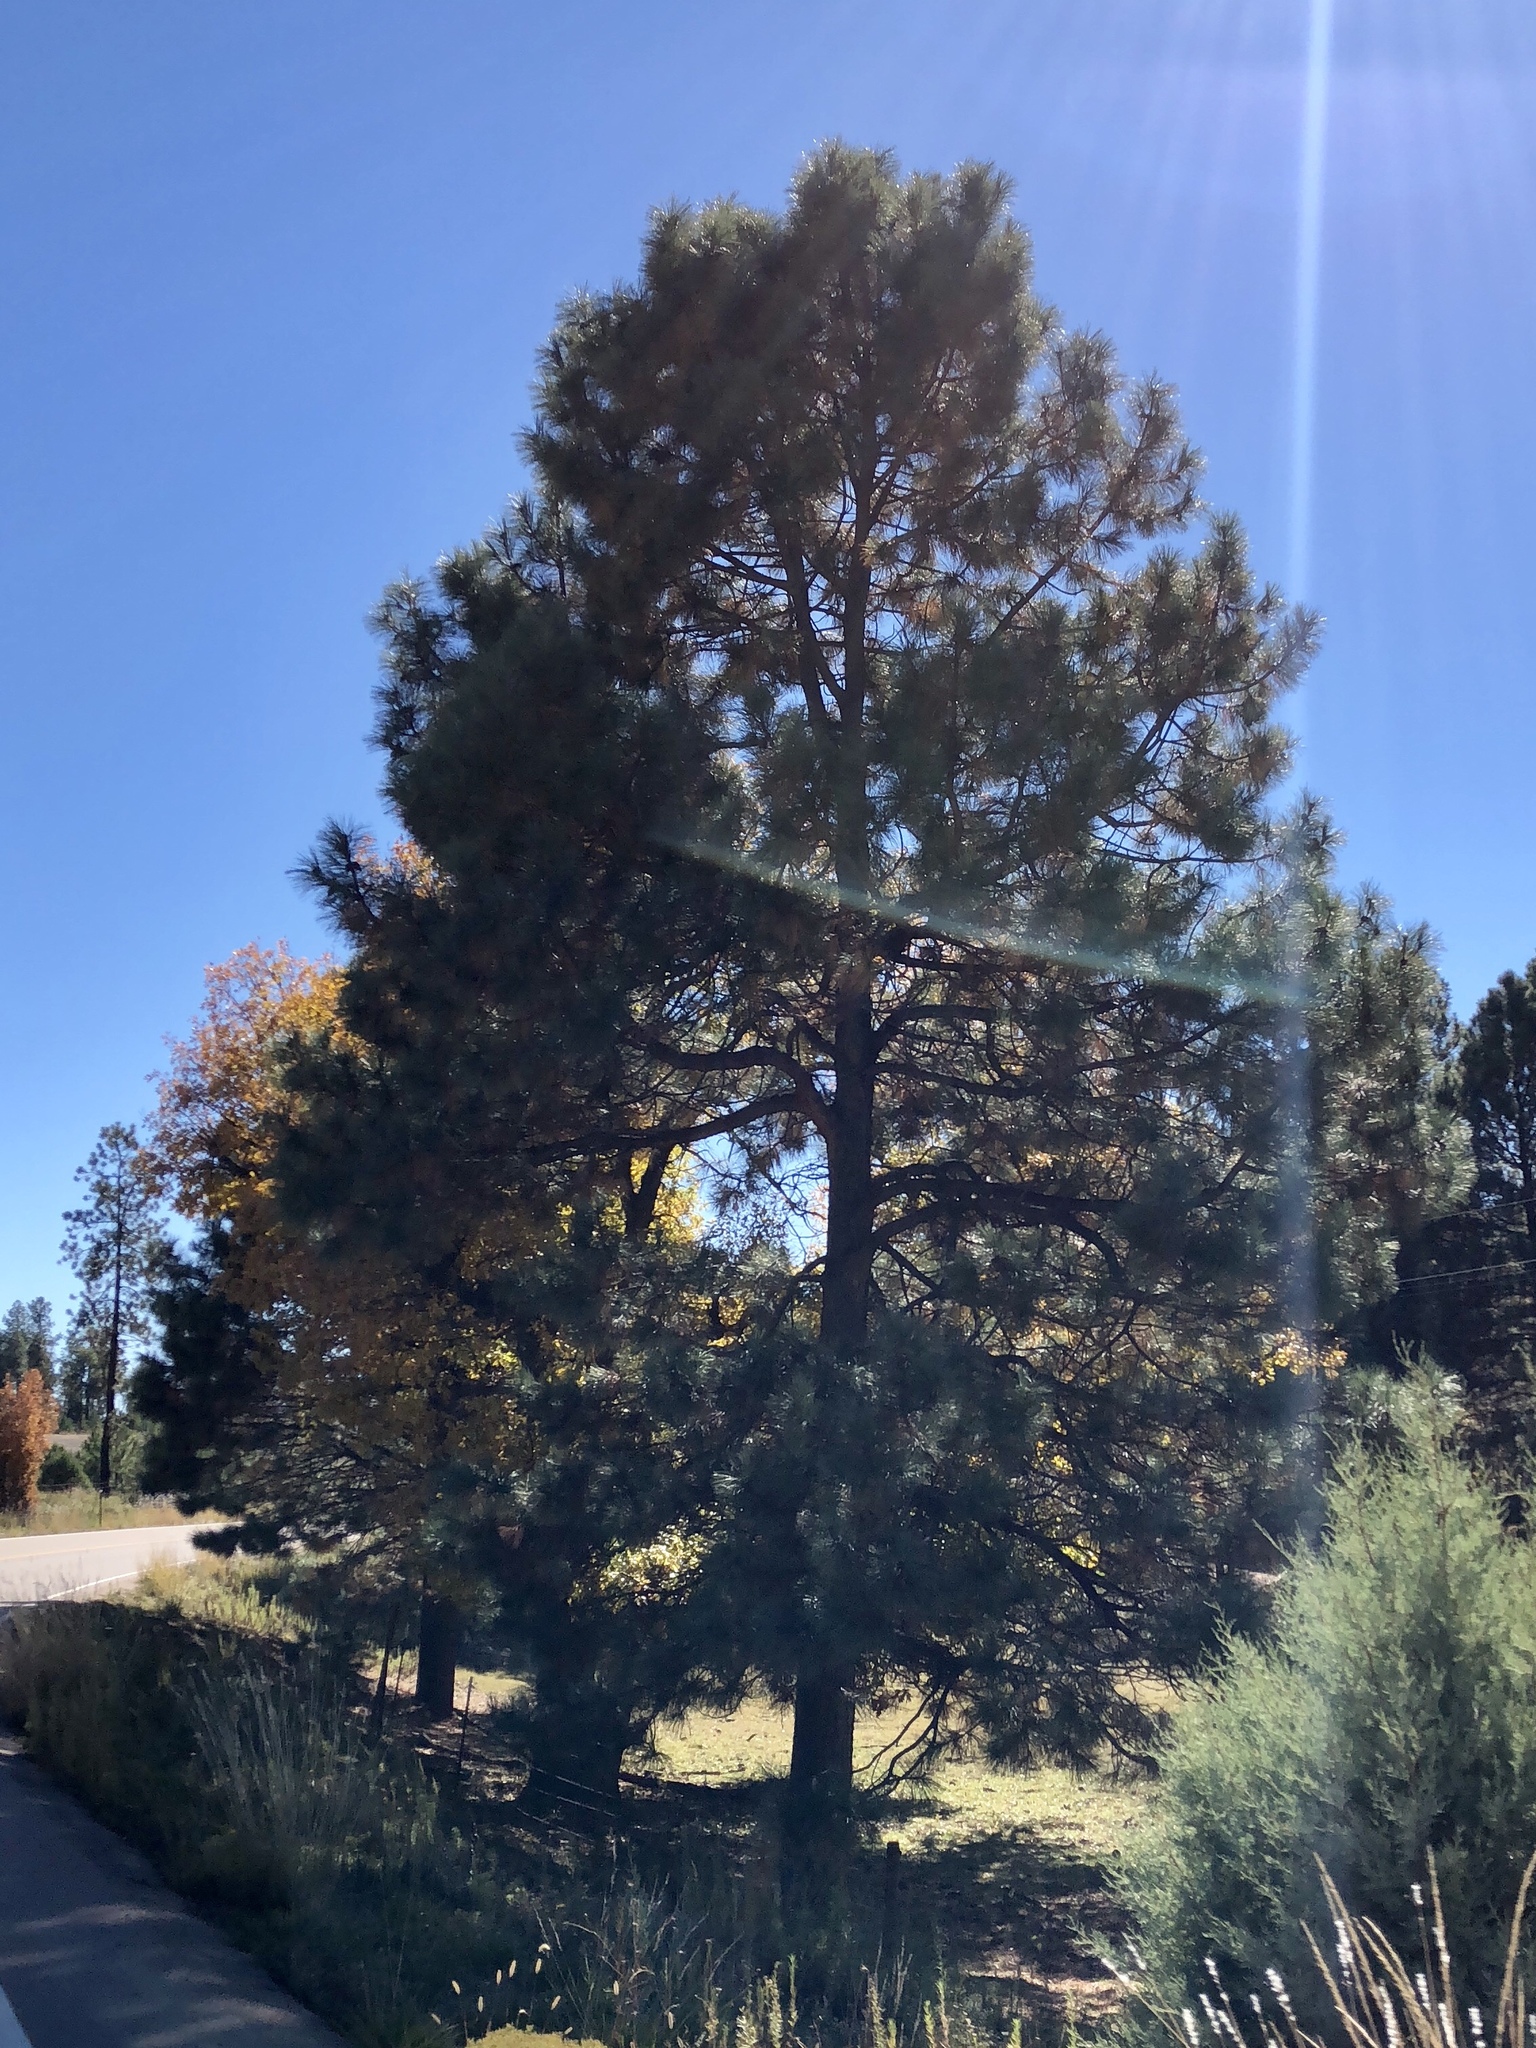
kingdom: Plantae
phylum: Tracheophyta
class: Pinopsida
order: Pinales
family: Pinaceae
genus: Pinus
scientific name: Pinus ponderosa
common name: Western yellow-pine
